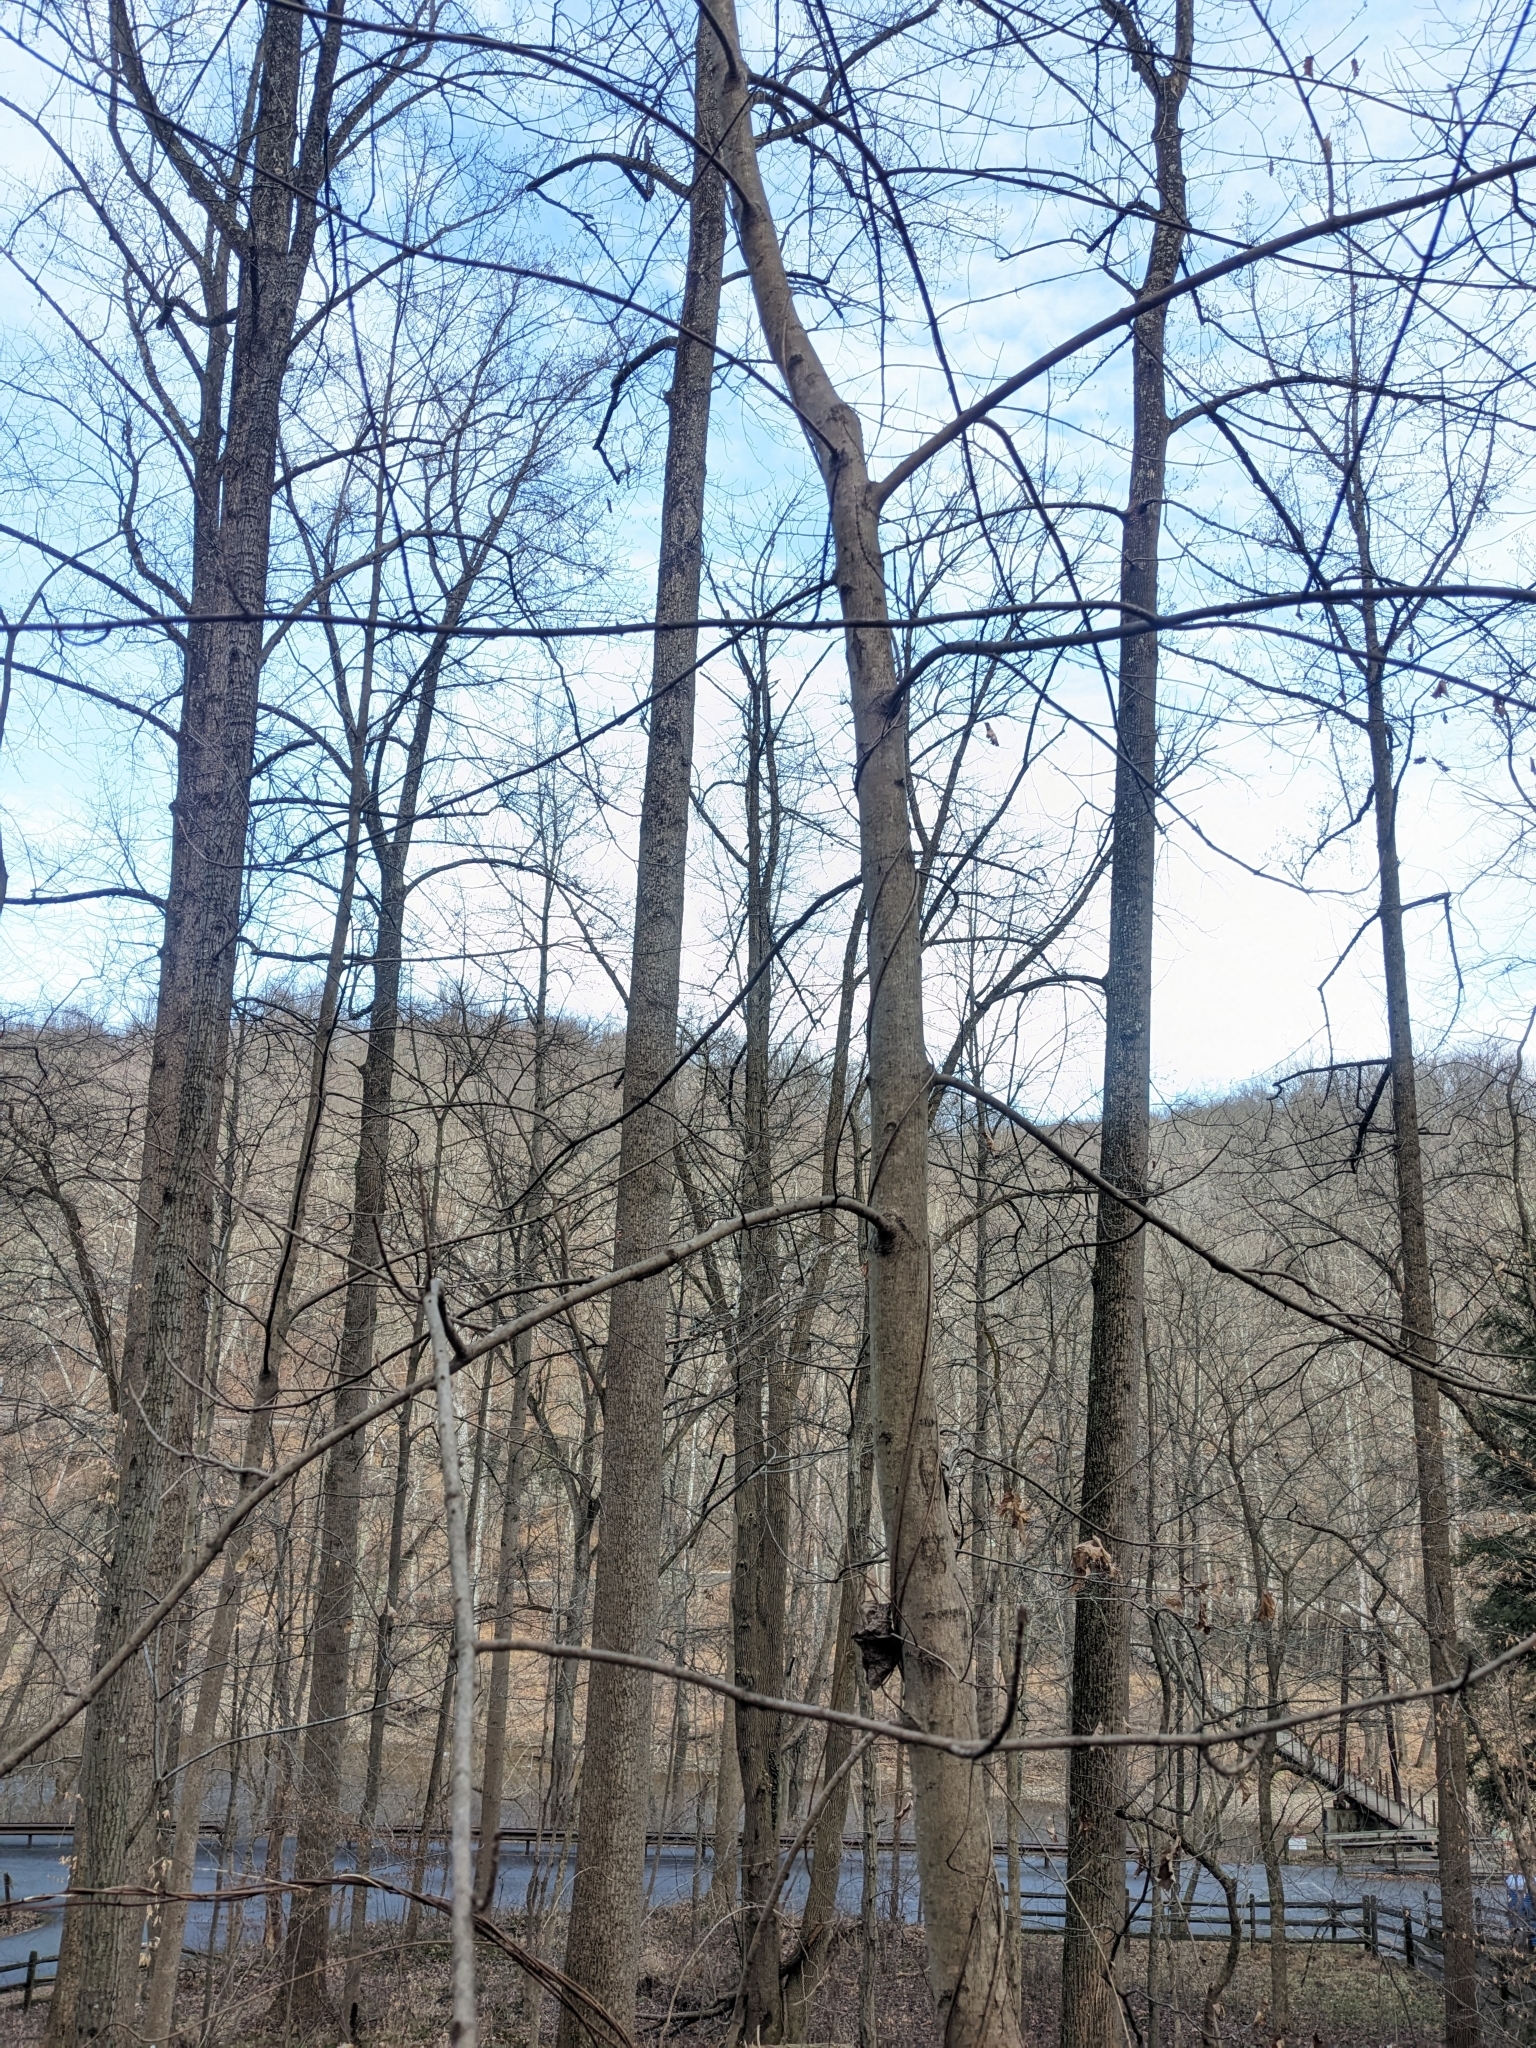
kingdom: Plantae
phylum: Tracheophyta
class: Magnoliopsida
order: Saxifragales
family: Altingiaceae
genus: Liquidambar
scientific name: Liquidambar styraciflua
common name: Sweet gum
